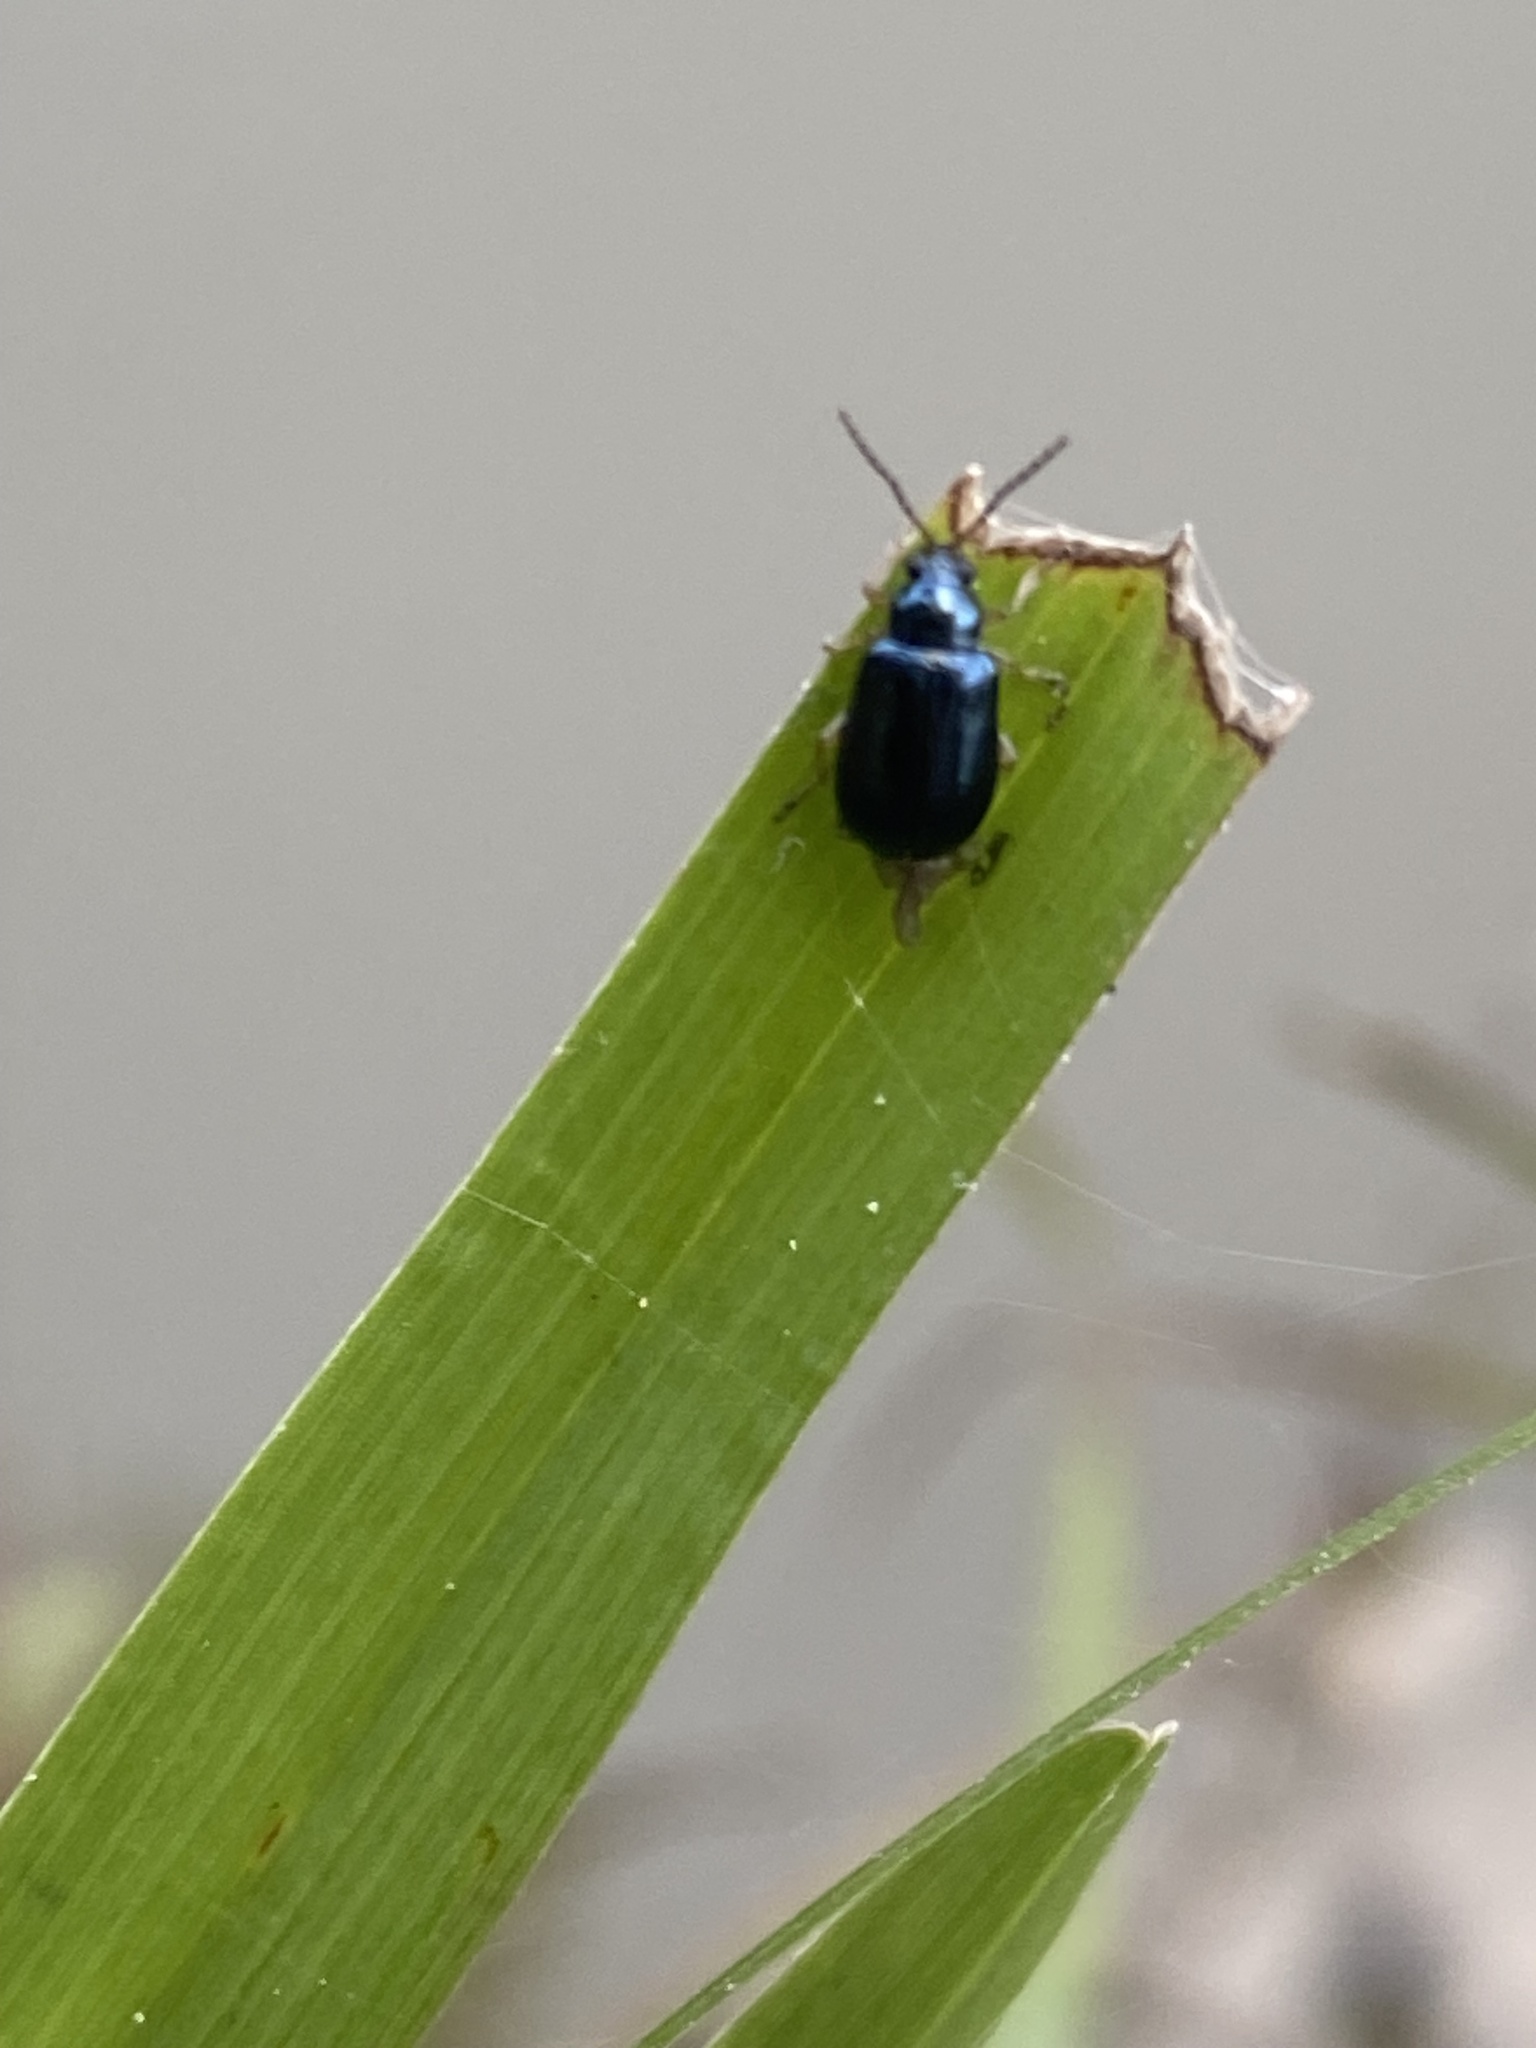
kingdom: Animalia
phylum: Arthropoda
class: Insecta
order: Coleoptera
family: Chrysomelidae
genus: Lysathia
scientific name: Lysathia ludoviciana
